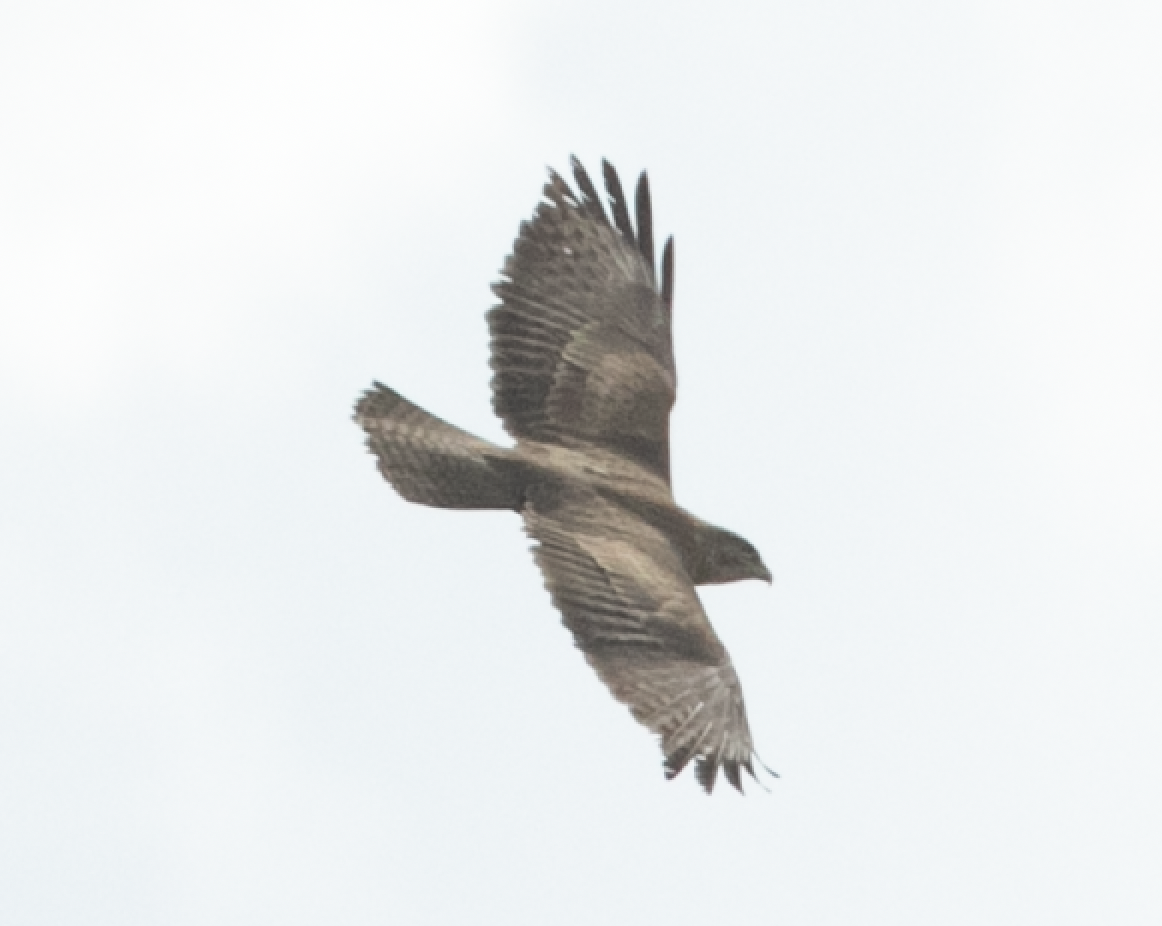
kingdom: Animalia
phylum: Chordata
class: Aves
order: Accipitriformes
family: Accipitridae
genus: Buteo
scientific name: Buteo buteo
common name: Common buzzard
